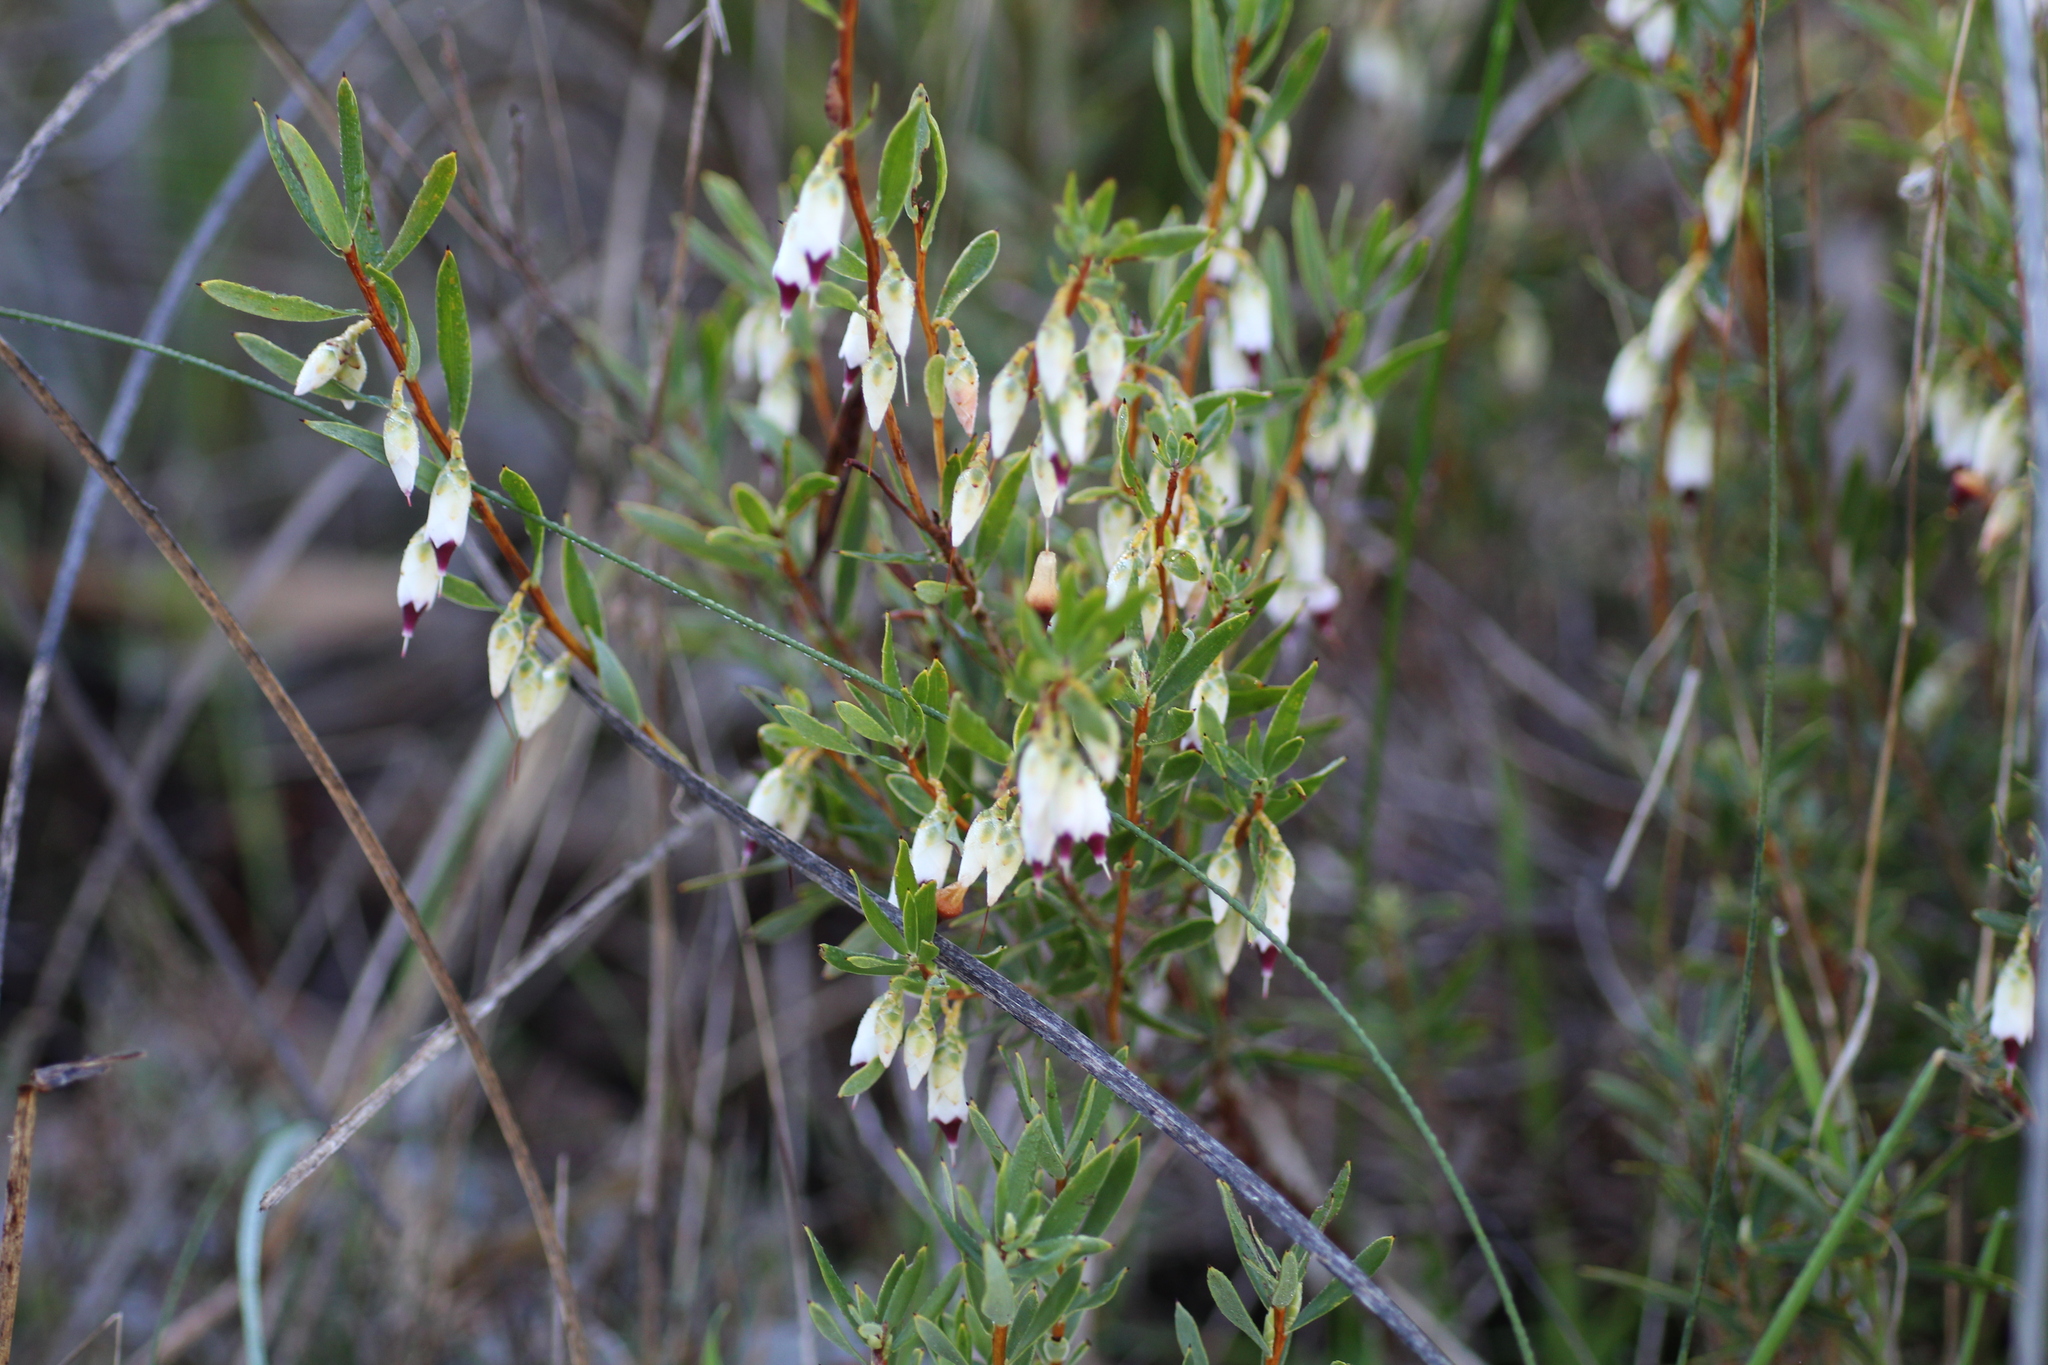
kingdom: Plantae
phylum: Tracheophyta
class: Magnoliopsida
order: Ericales
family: Ericaceae
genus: Conostephium
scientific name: Conostephium pendulum
